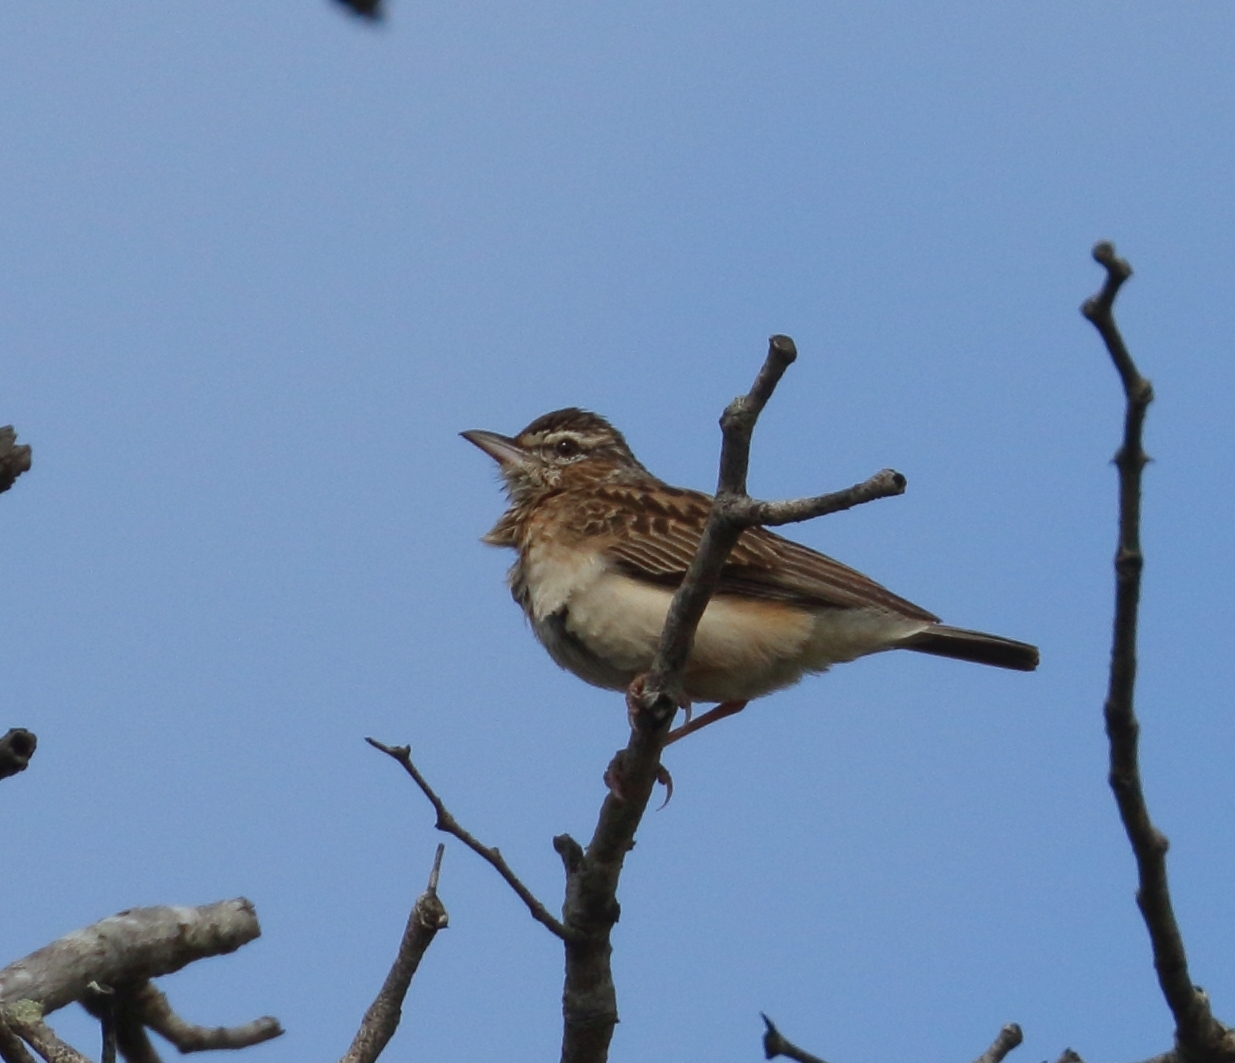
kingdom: Animalia
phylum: Chordata
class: Aves
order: Passeriformes
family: Alaudidae
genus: Calendulauda
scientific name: Calendulauda sabota
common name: Sabota lark
